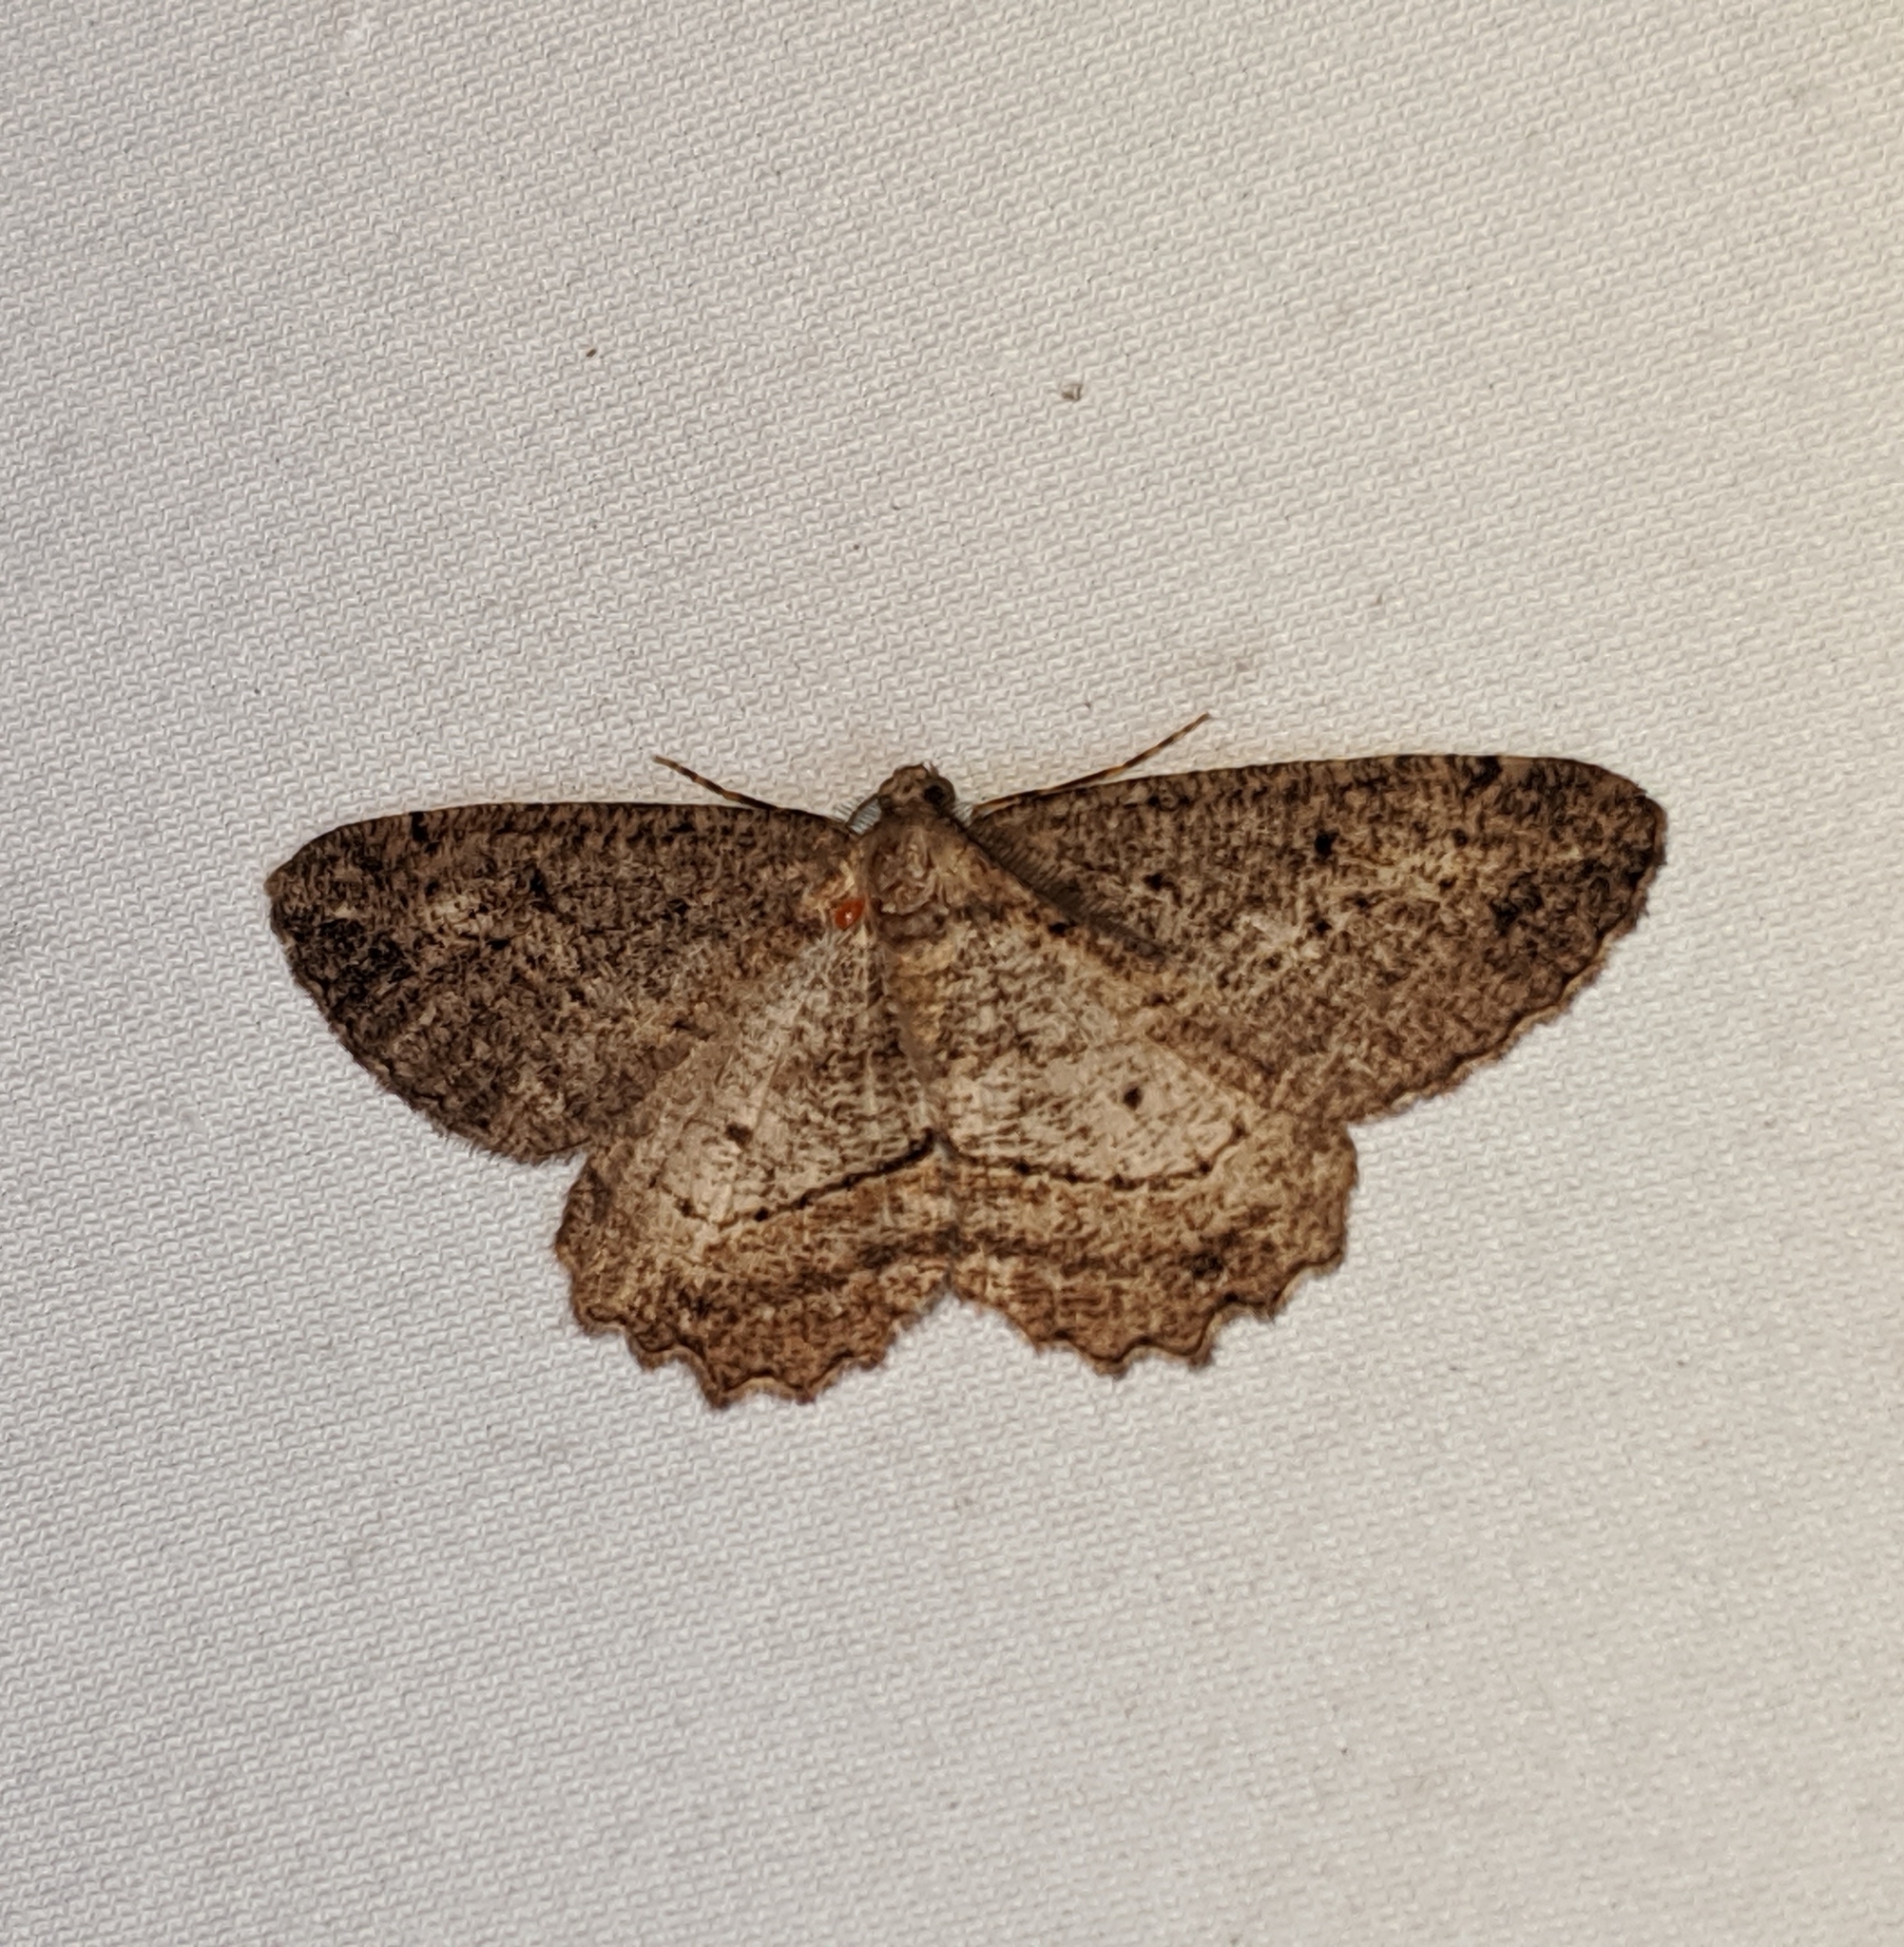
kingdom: Animalia
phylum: Arthropoda
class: Insecta
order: Lepidoptera
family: Geometridae
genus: Neoalcis
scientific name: Neoalcis californiaria
